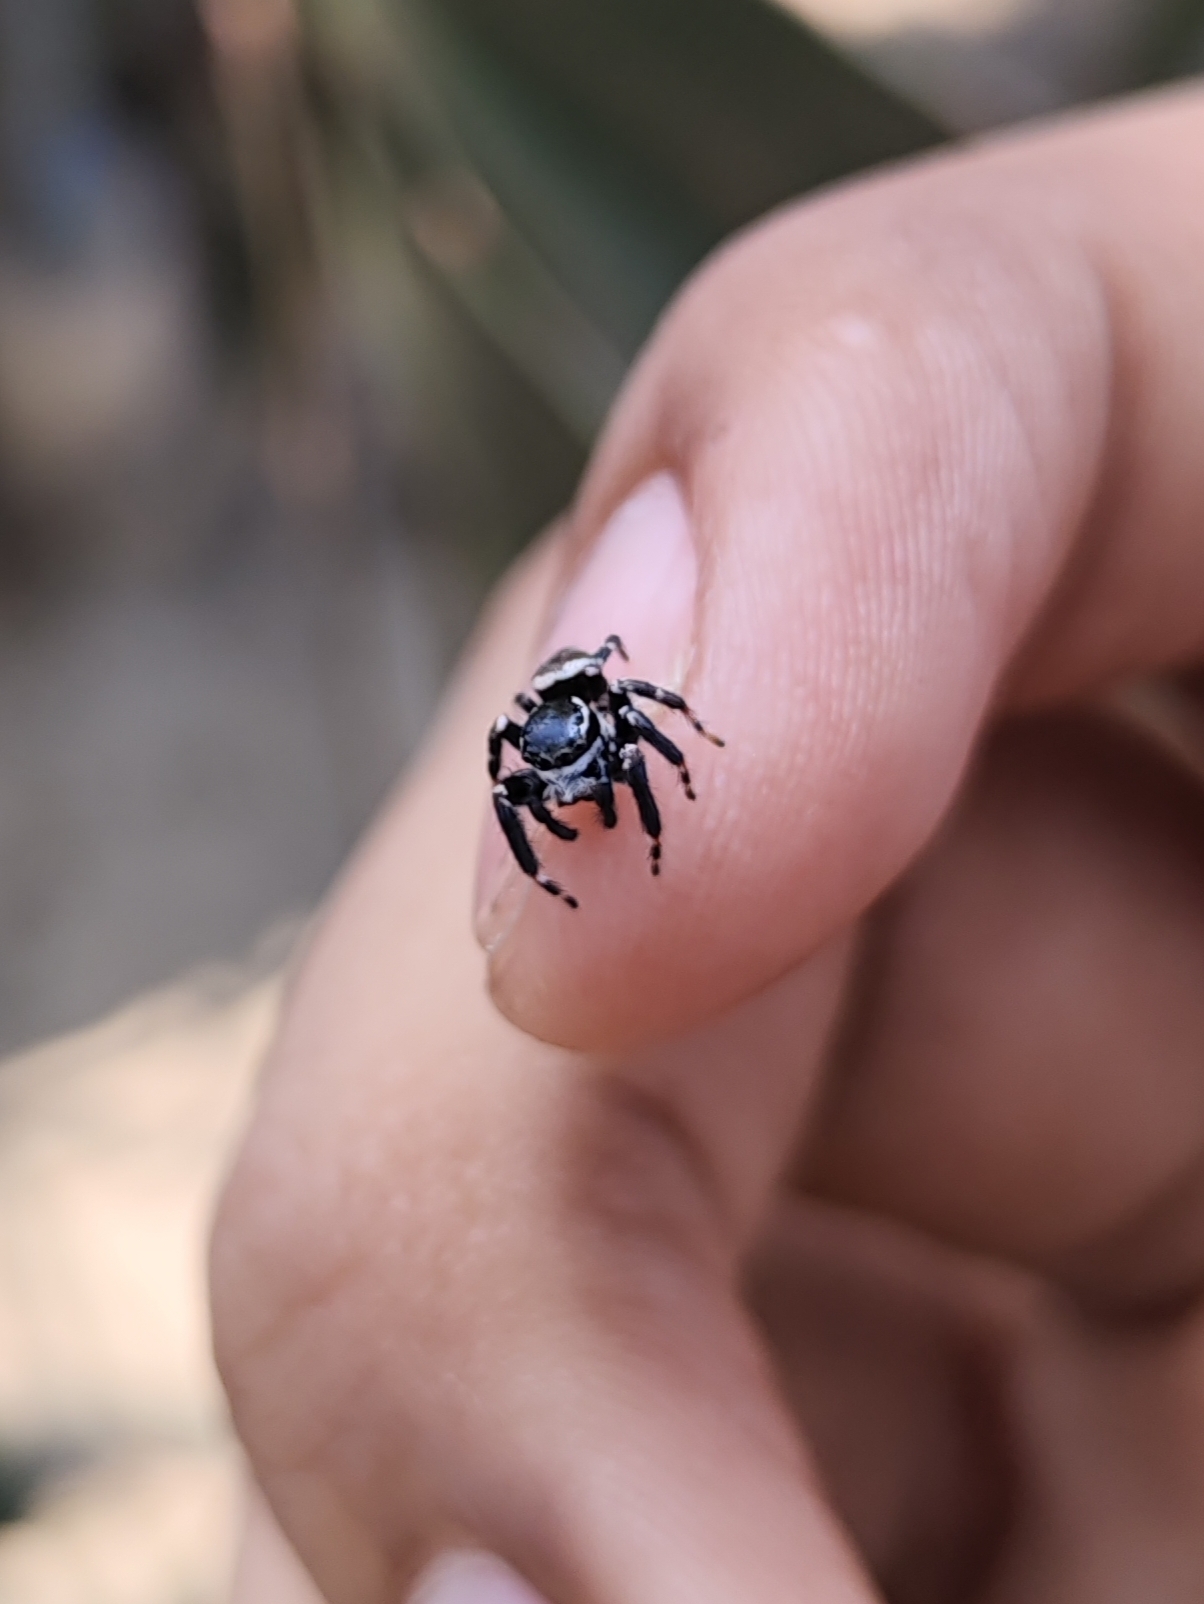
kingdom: Animalia
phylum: Arthropoda
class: Arachnida
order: Araneae
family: Salticidae
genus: Carrhotus
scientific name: Carrhotus sannio
